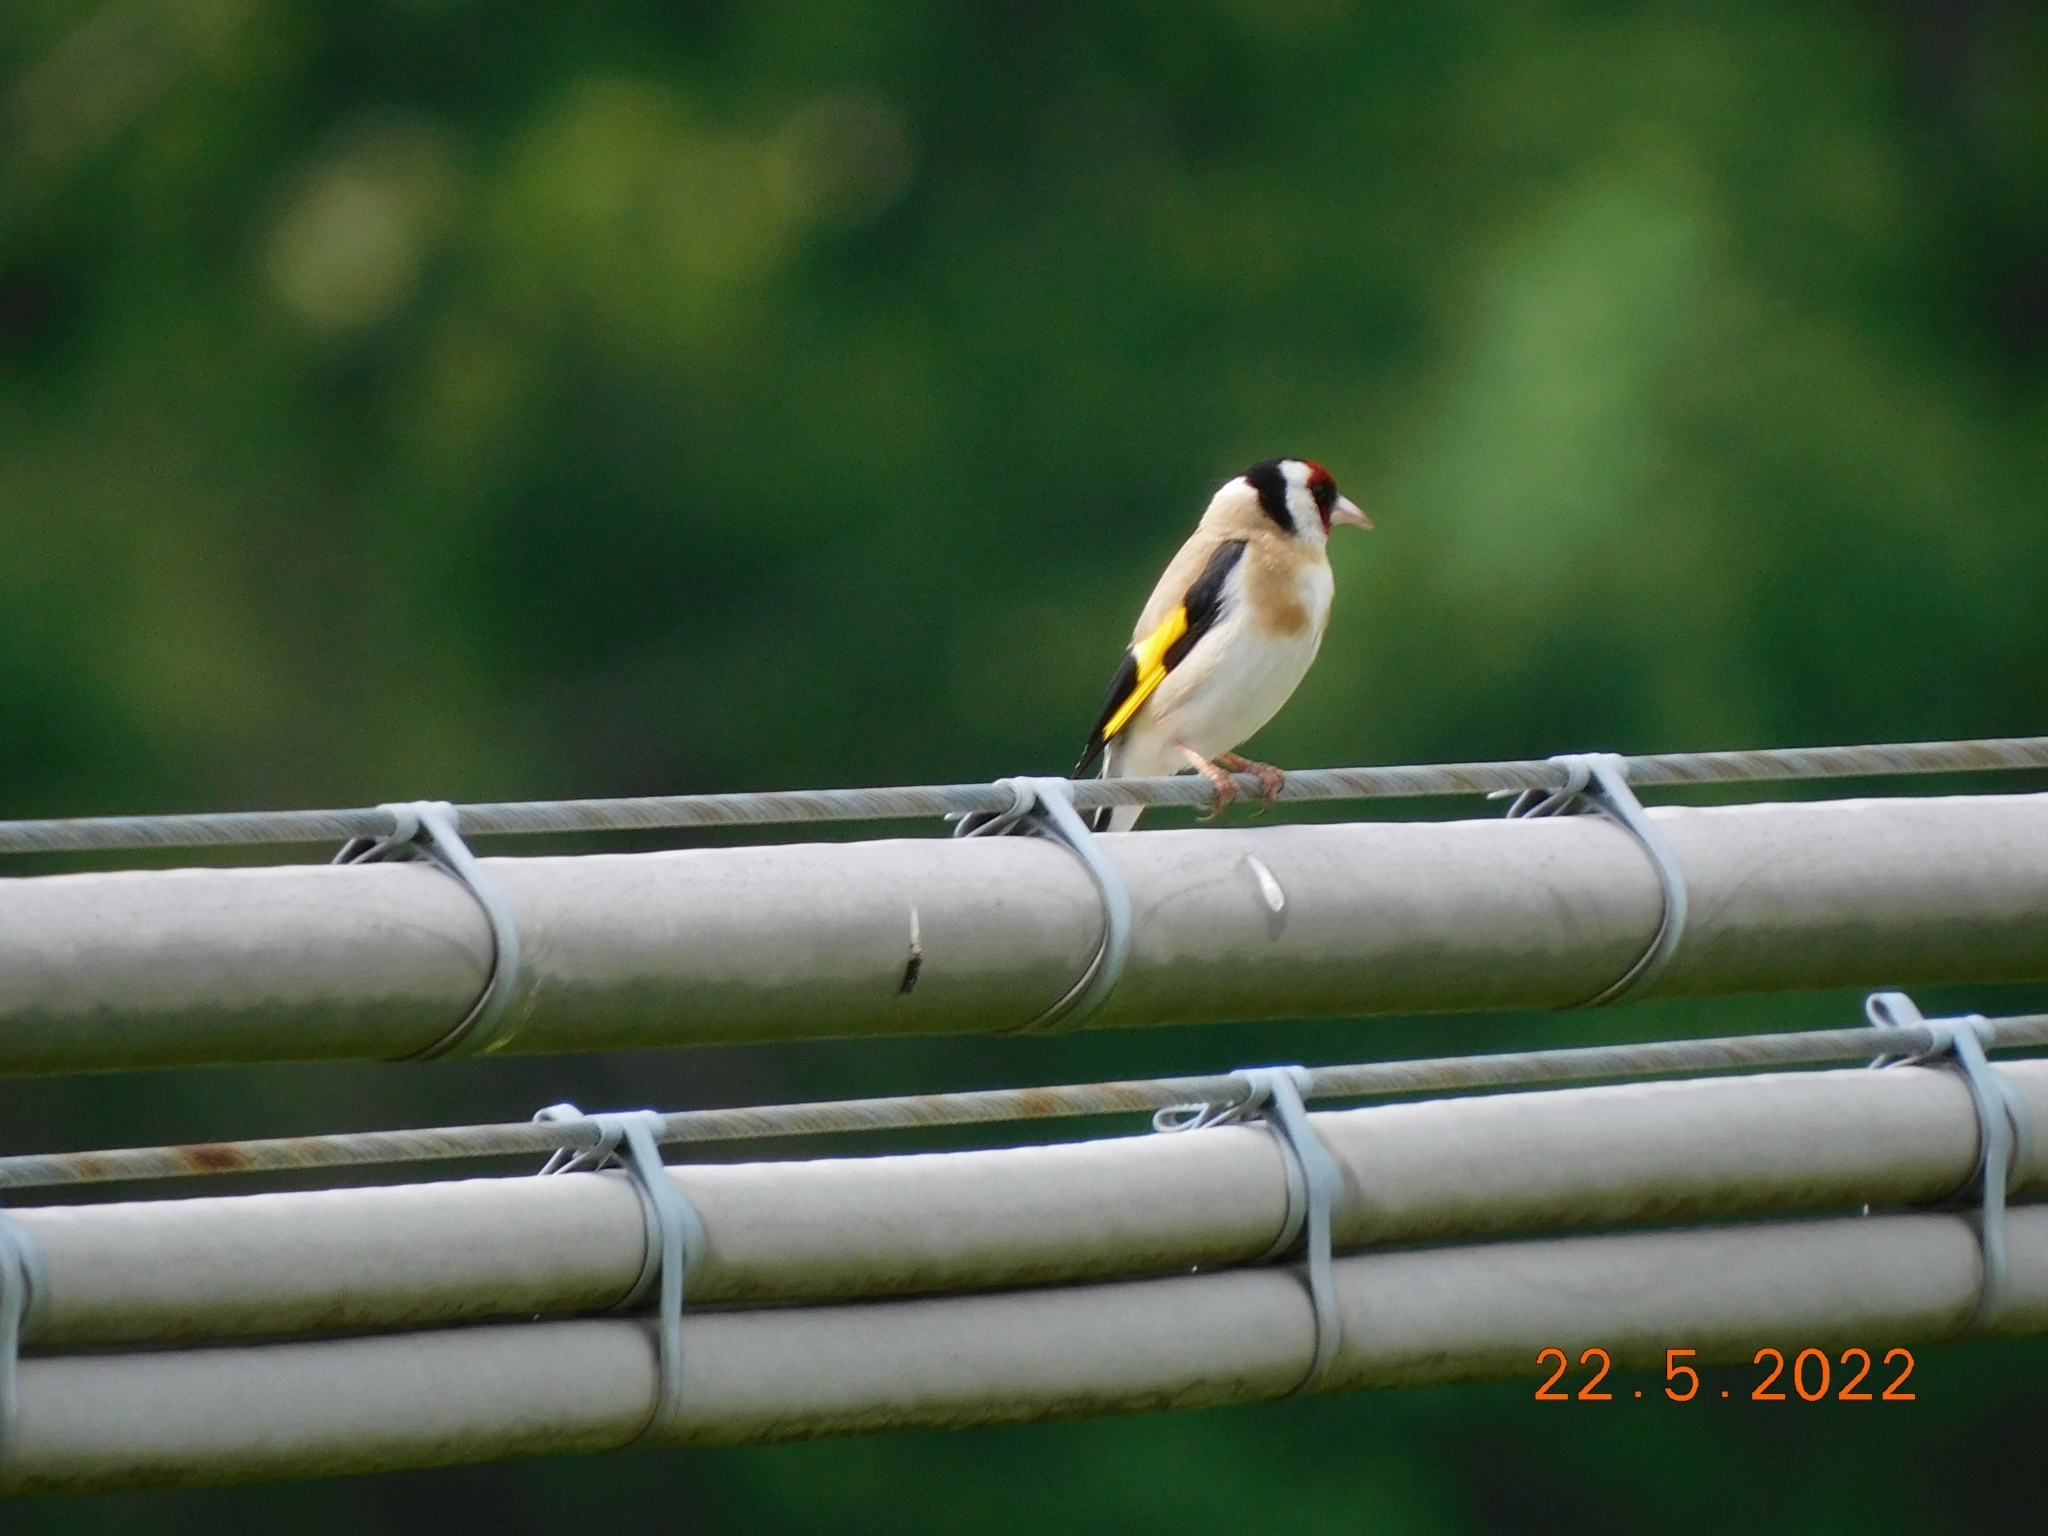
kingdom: Animalia
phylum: Chordata
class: Aves
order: Passeriformes
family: Fringillidae
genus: Carduelis
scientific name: Carduelis carduelis
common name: European goldfinch
